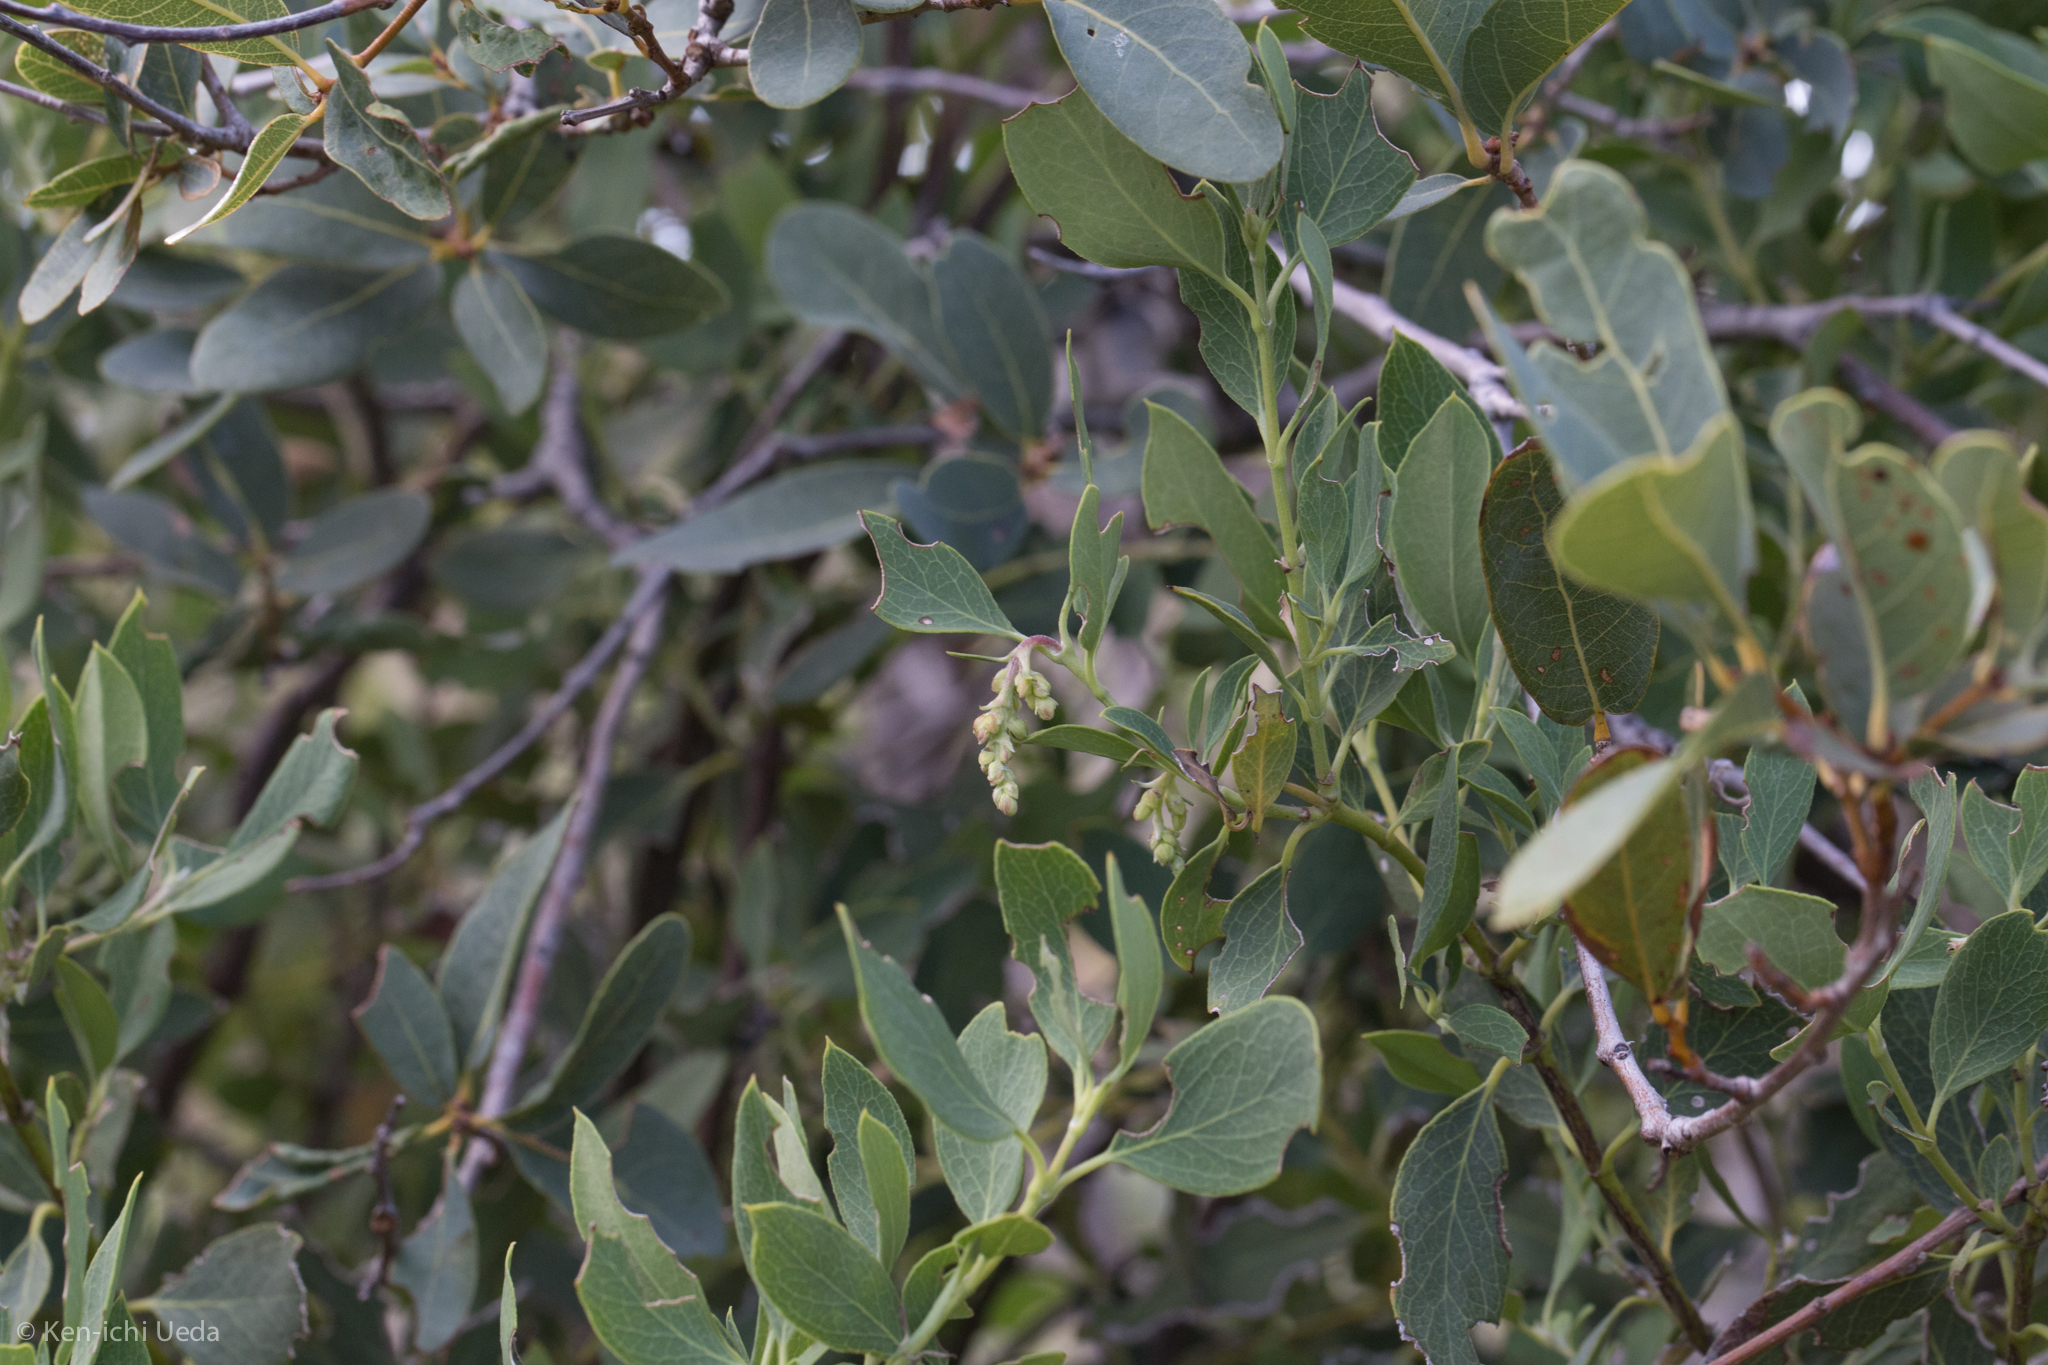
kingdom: Plantae
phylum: Tracheophyta
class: Magnoliopsida
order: Garryales
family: Garryaceae
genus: Garrya
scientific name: Garrya wrightii
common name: Wright's silktassel
